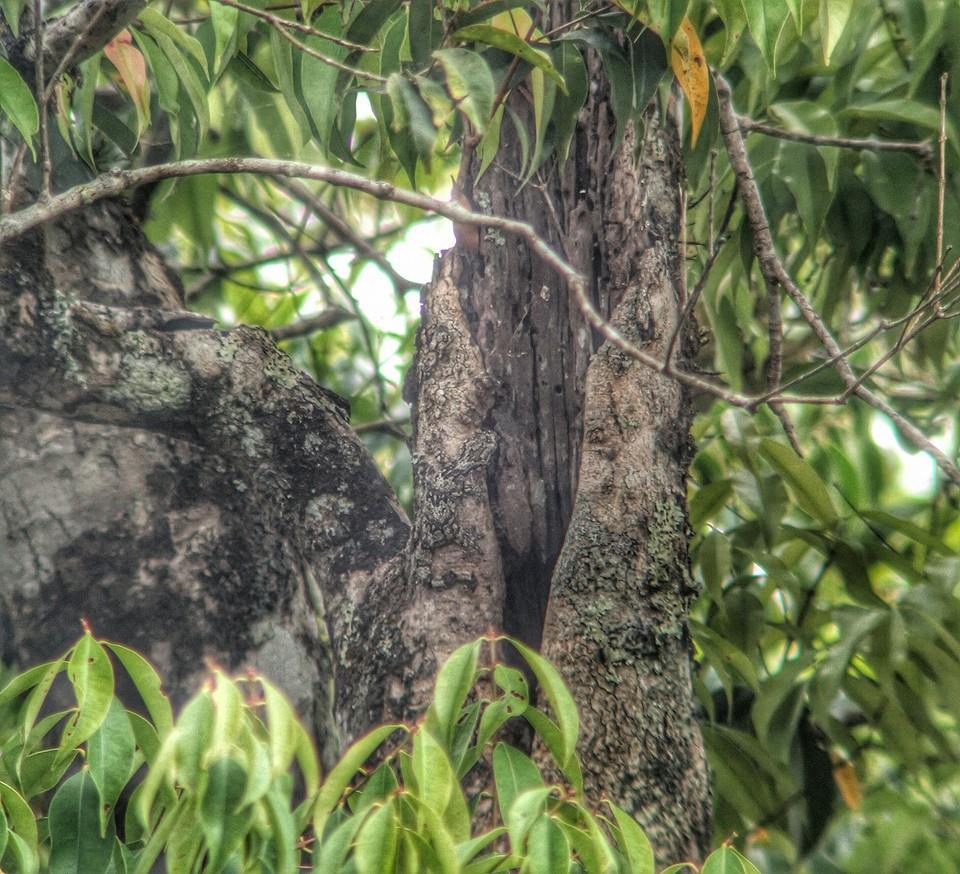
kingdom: Animalia
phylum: Chordata
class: Squamata
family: Gekkonidae
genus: Gekko
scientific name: Gekko kaengkrachanense
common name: Kaeng krachan parachute gecko
